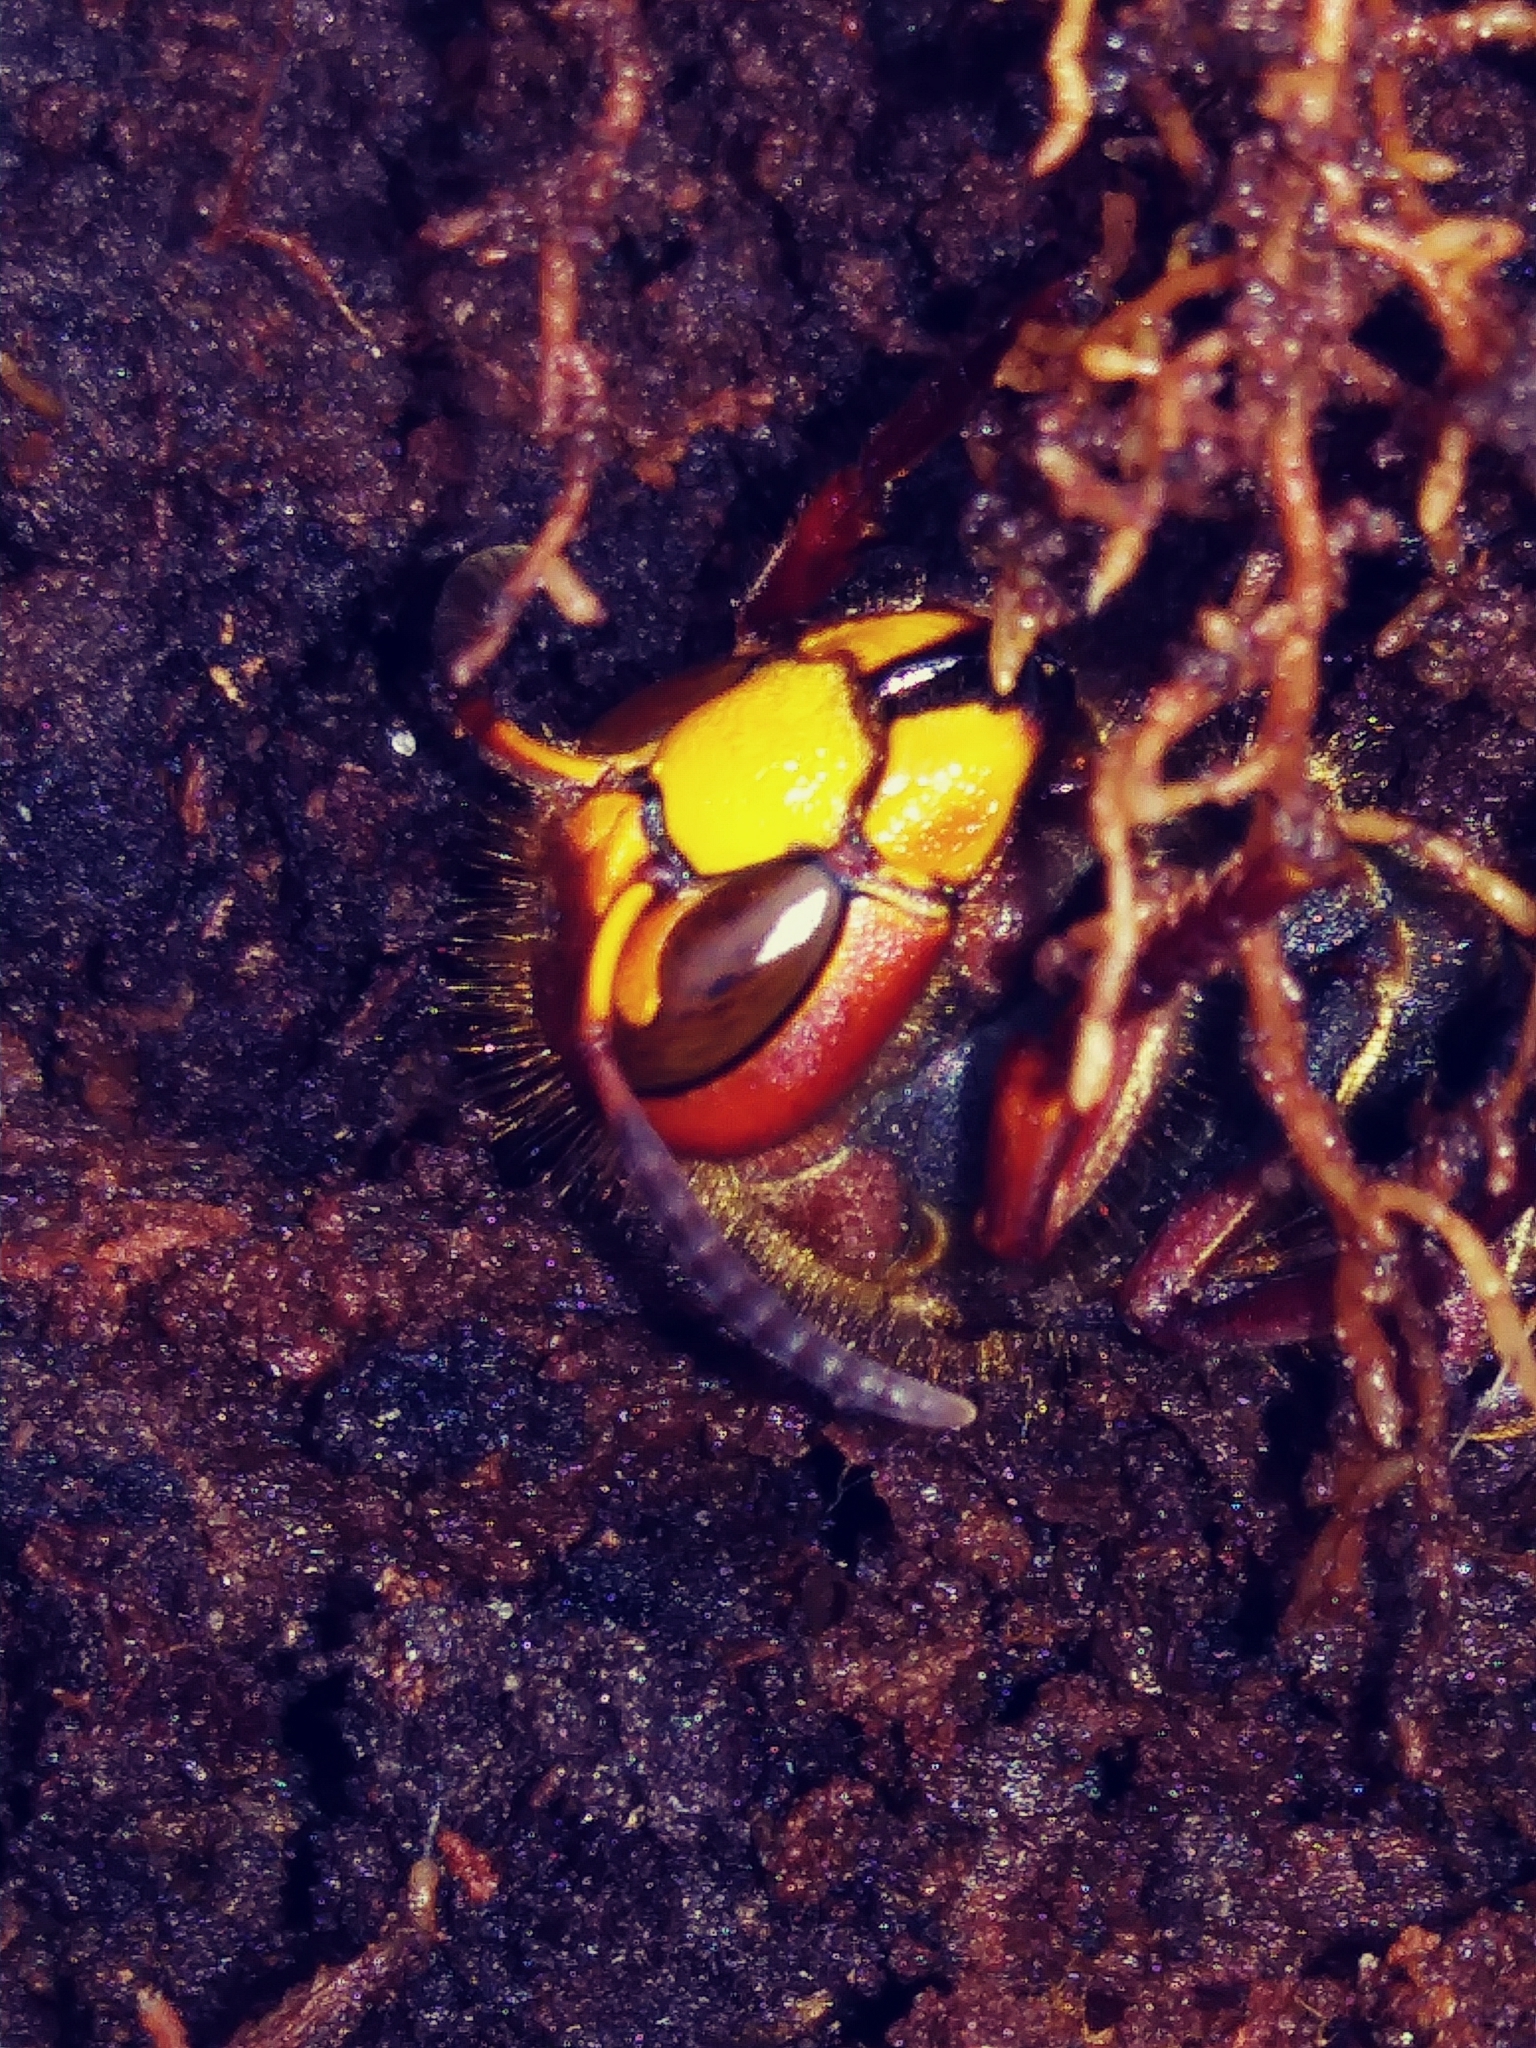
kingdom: Animalia
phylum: Arthropoda
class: Insecta
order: Hymenoptera
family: Vespidae
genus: Vespa
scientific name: Vespa crabro
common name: Hornet
